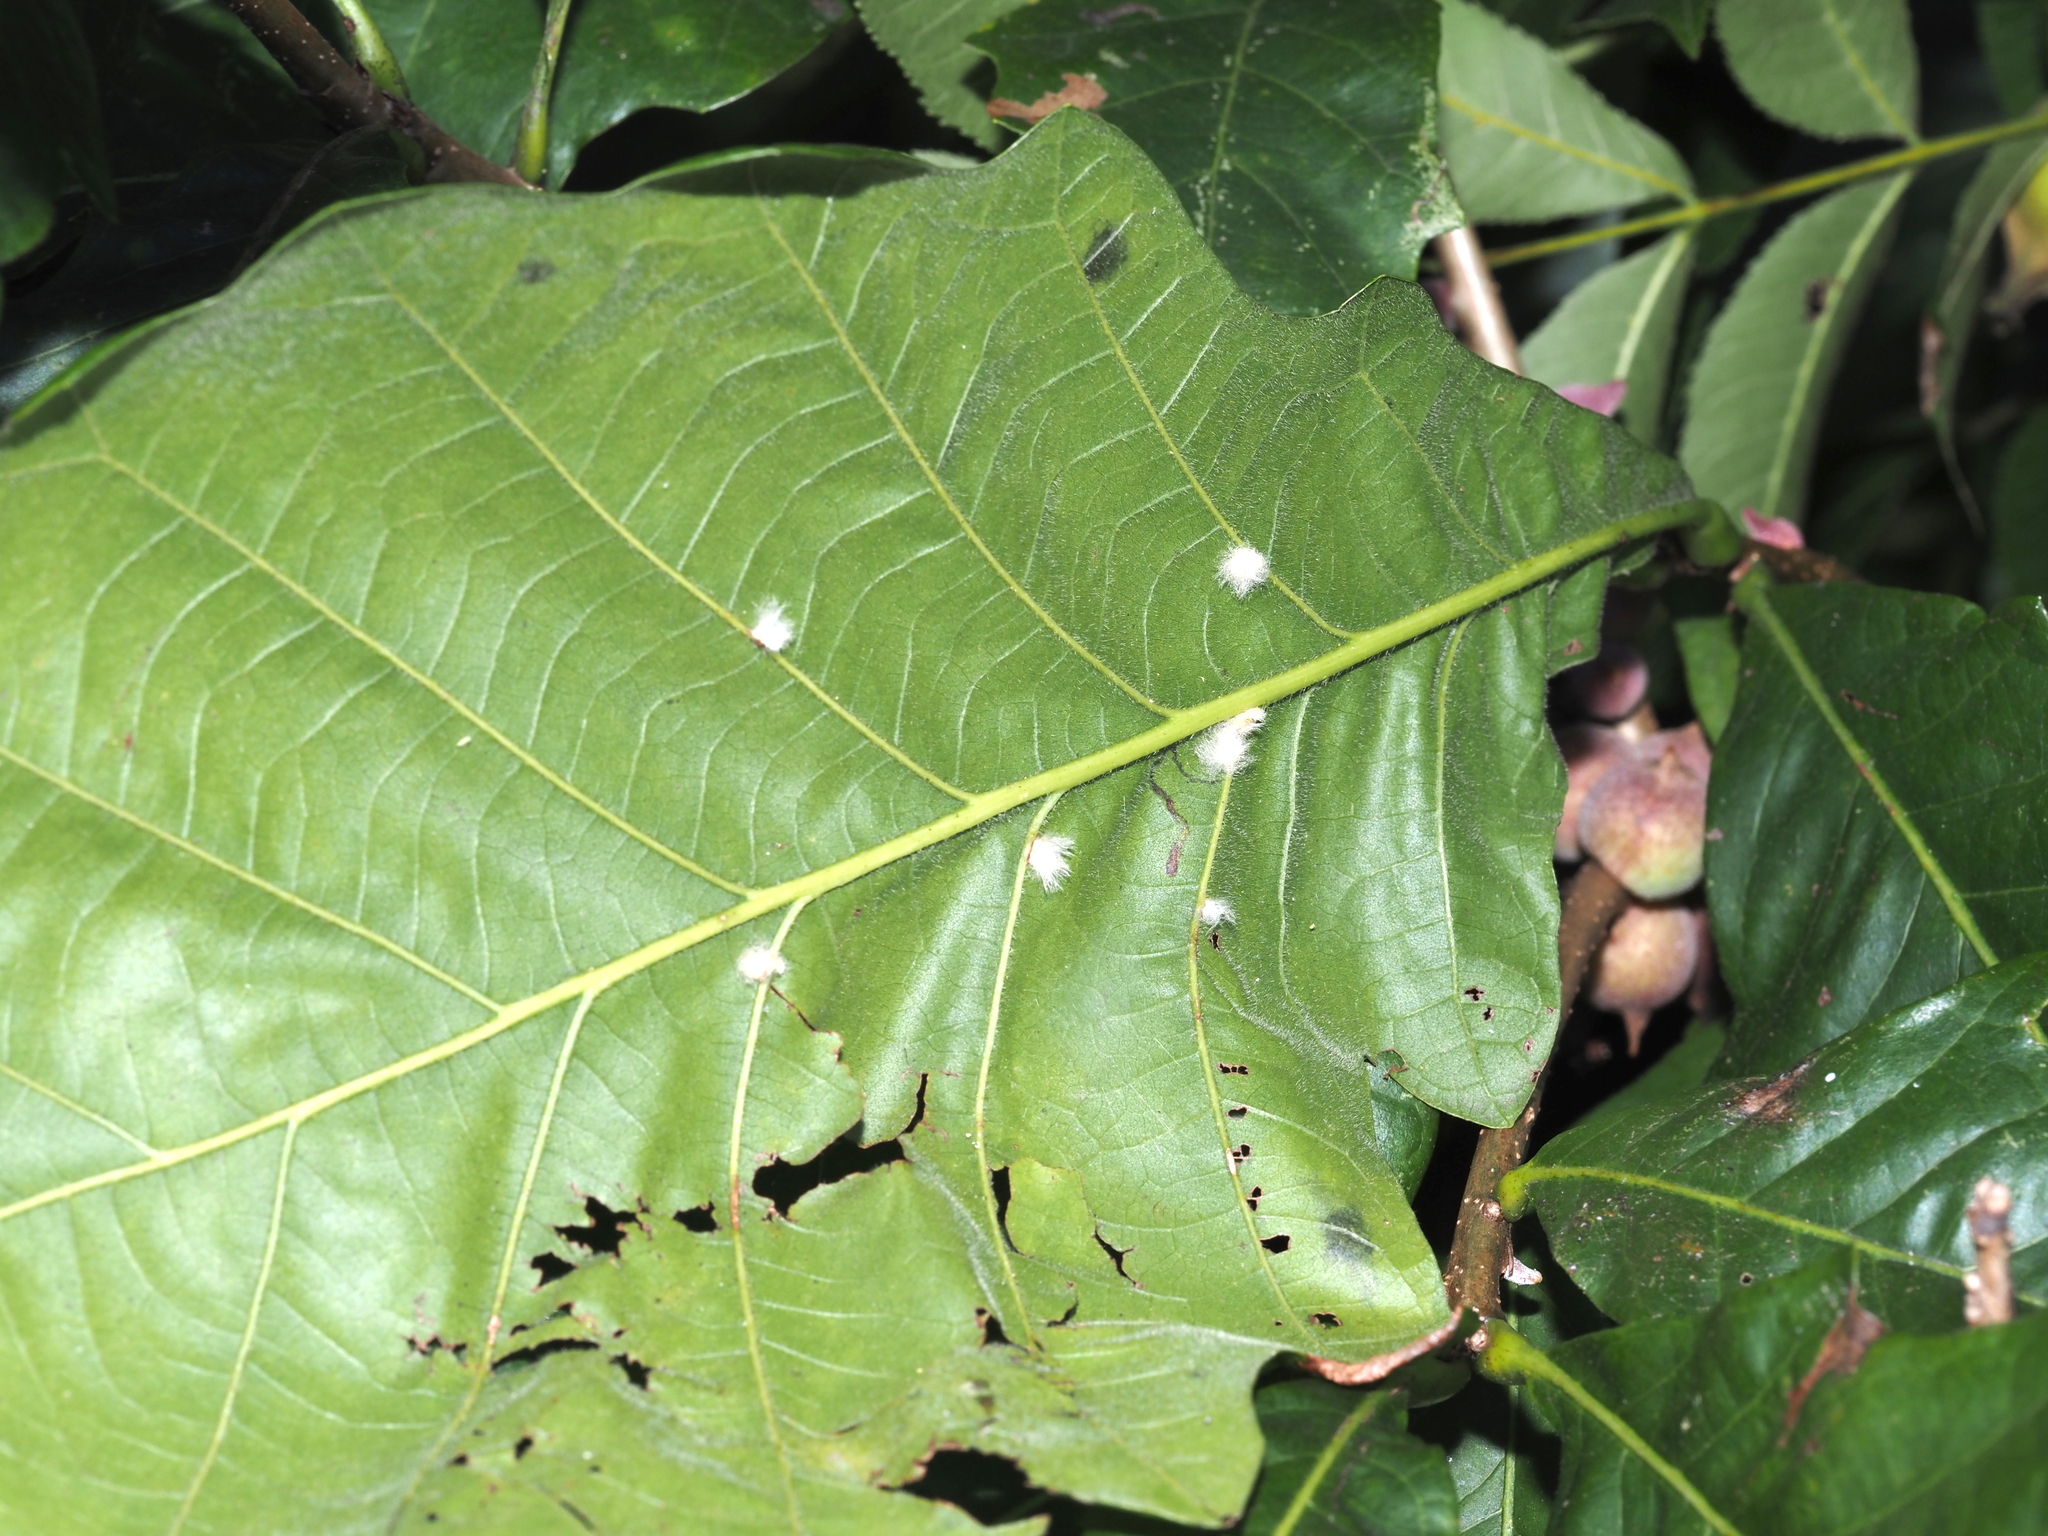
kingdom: Animalia
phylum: Arthropoda
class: Insecta
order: Hymenoptera
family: Cynipidae
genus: Neuroterus
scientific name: Neuroterus floccosus
